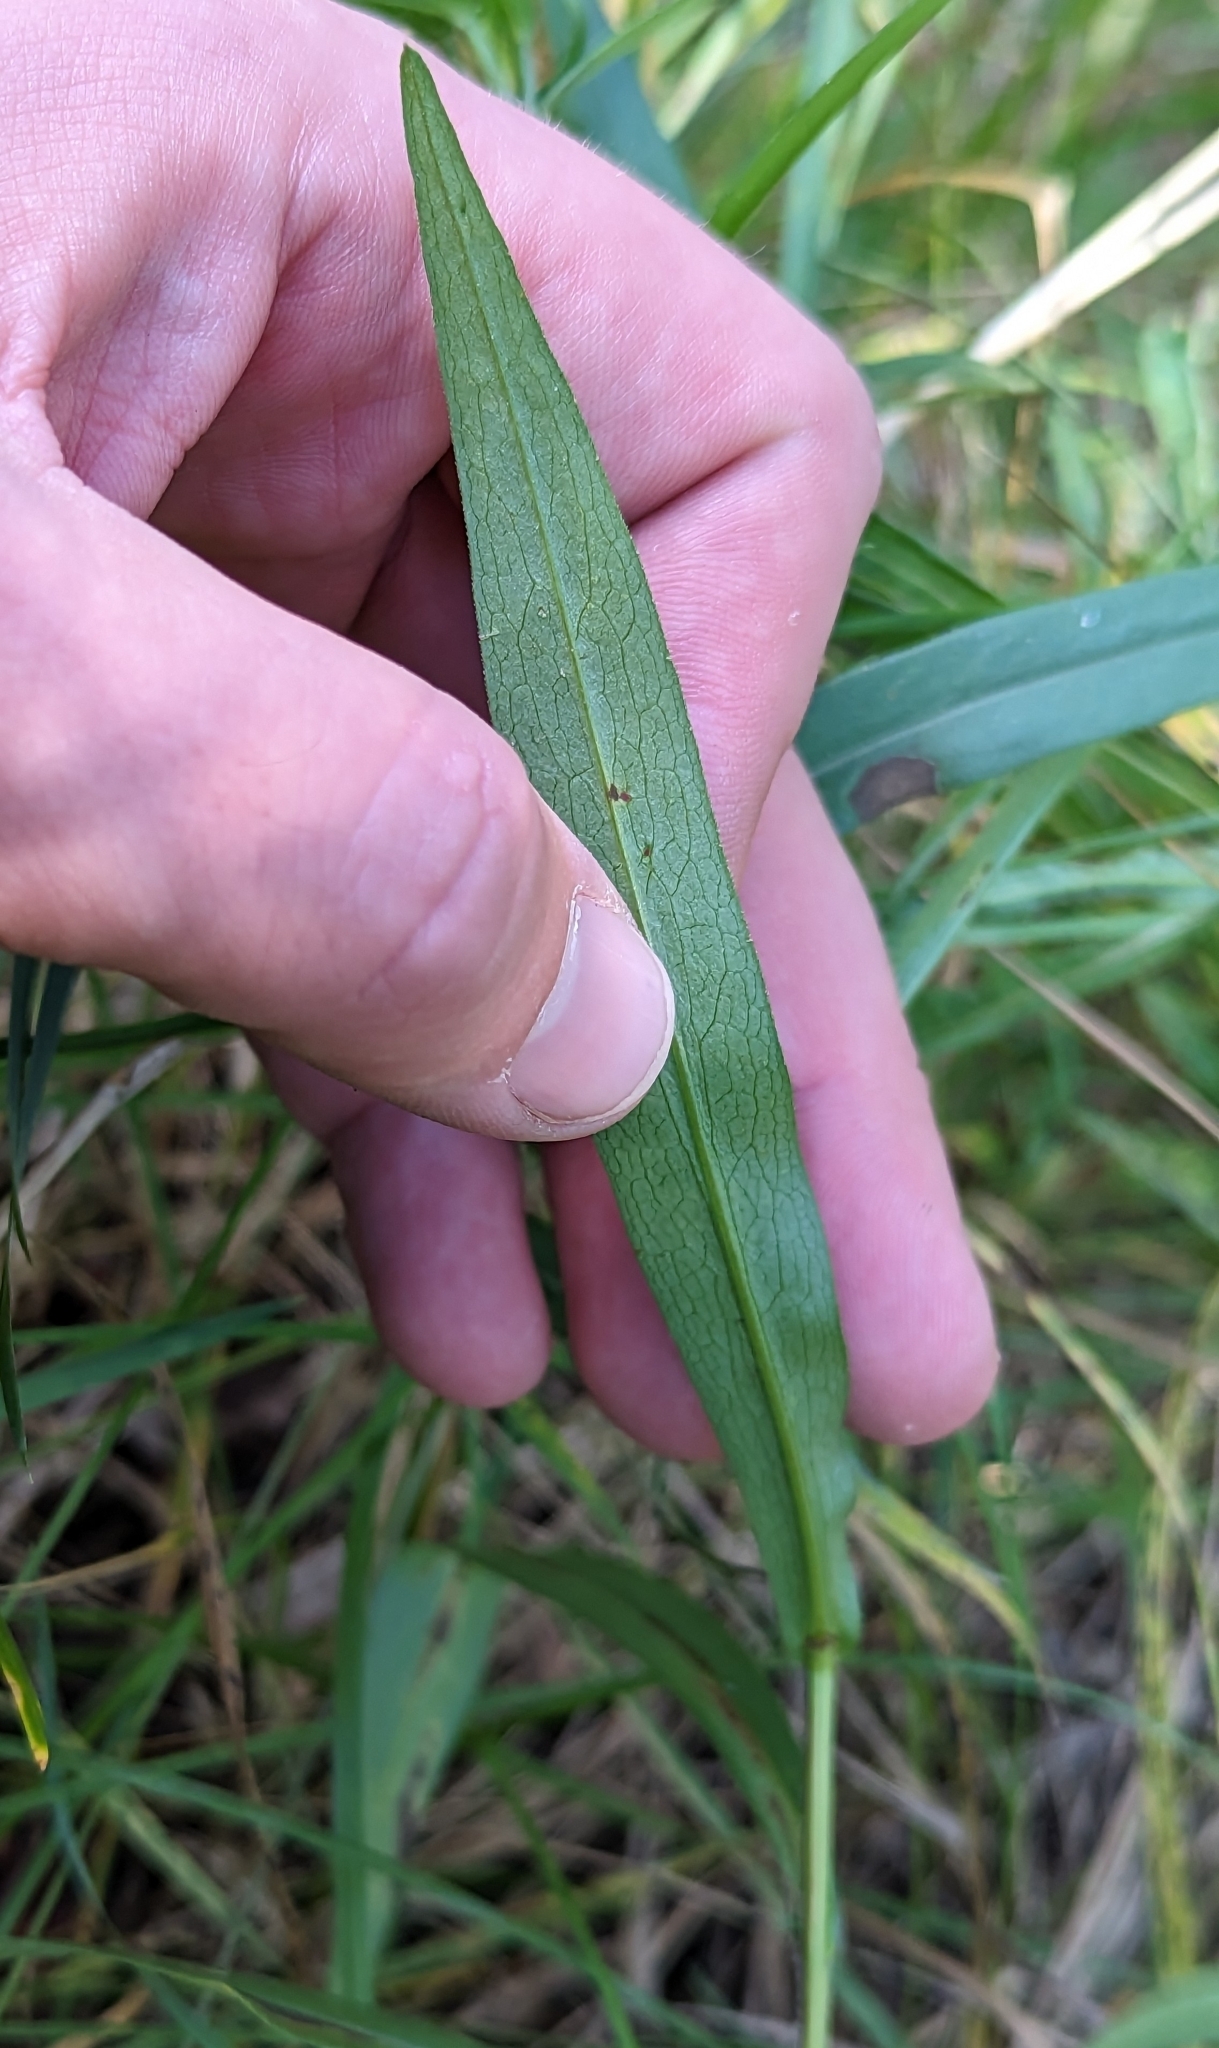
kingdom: Plantae
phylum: Tracheophyta
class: Magnoliopsida
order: Asterales
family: Asteraceae
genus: Symphyotrichum
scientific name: Symphyotrichum lanceolatum
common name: Panicled aster
